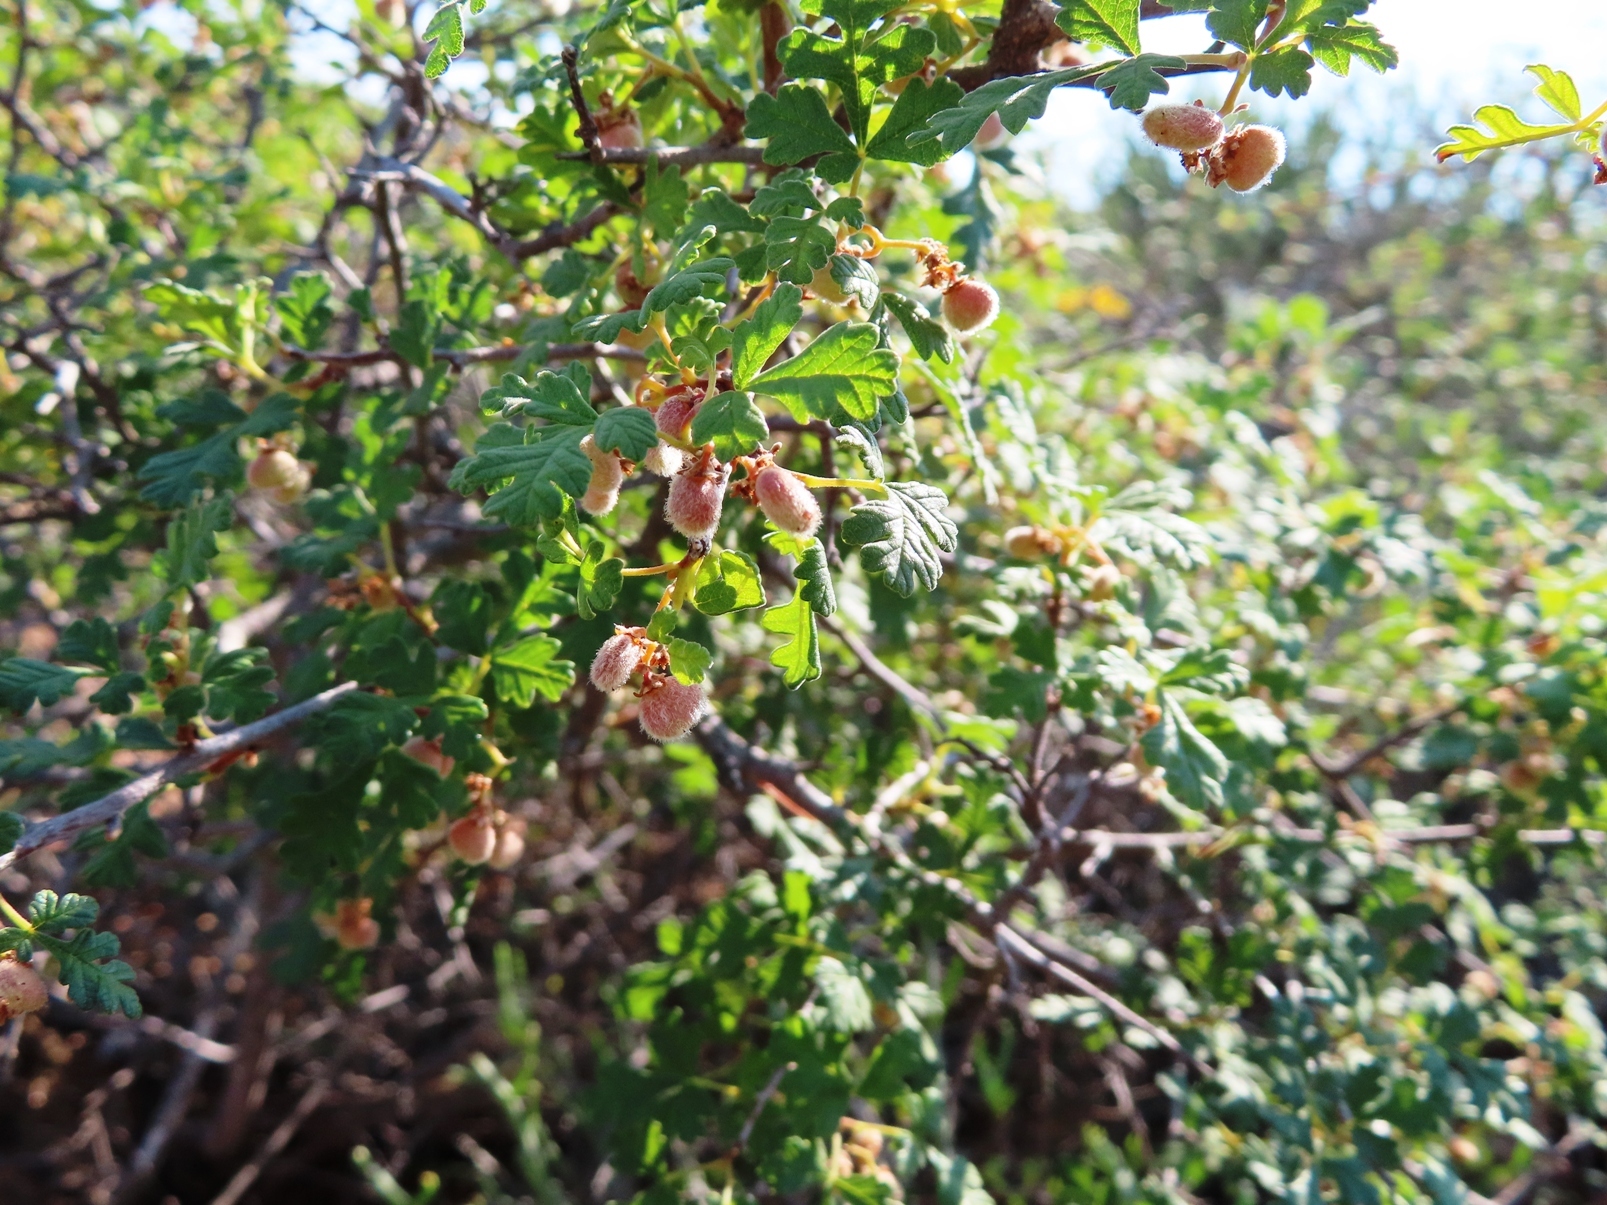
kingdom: Plantae
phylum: Tracheophyta
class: Magnoliopsida
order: Sapindales
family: Anacardiaceae
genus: Searsia
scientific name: Searsia incisa
